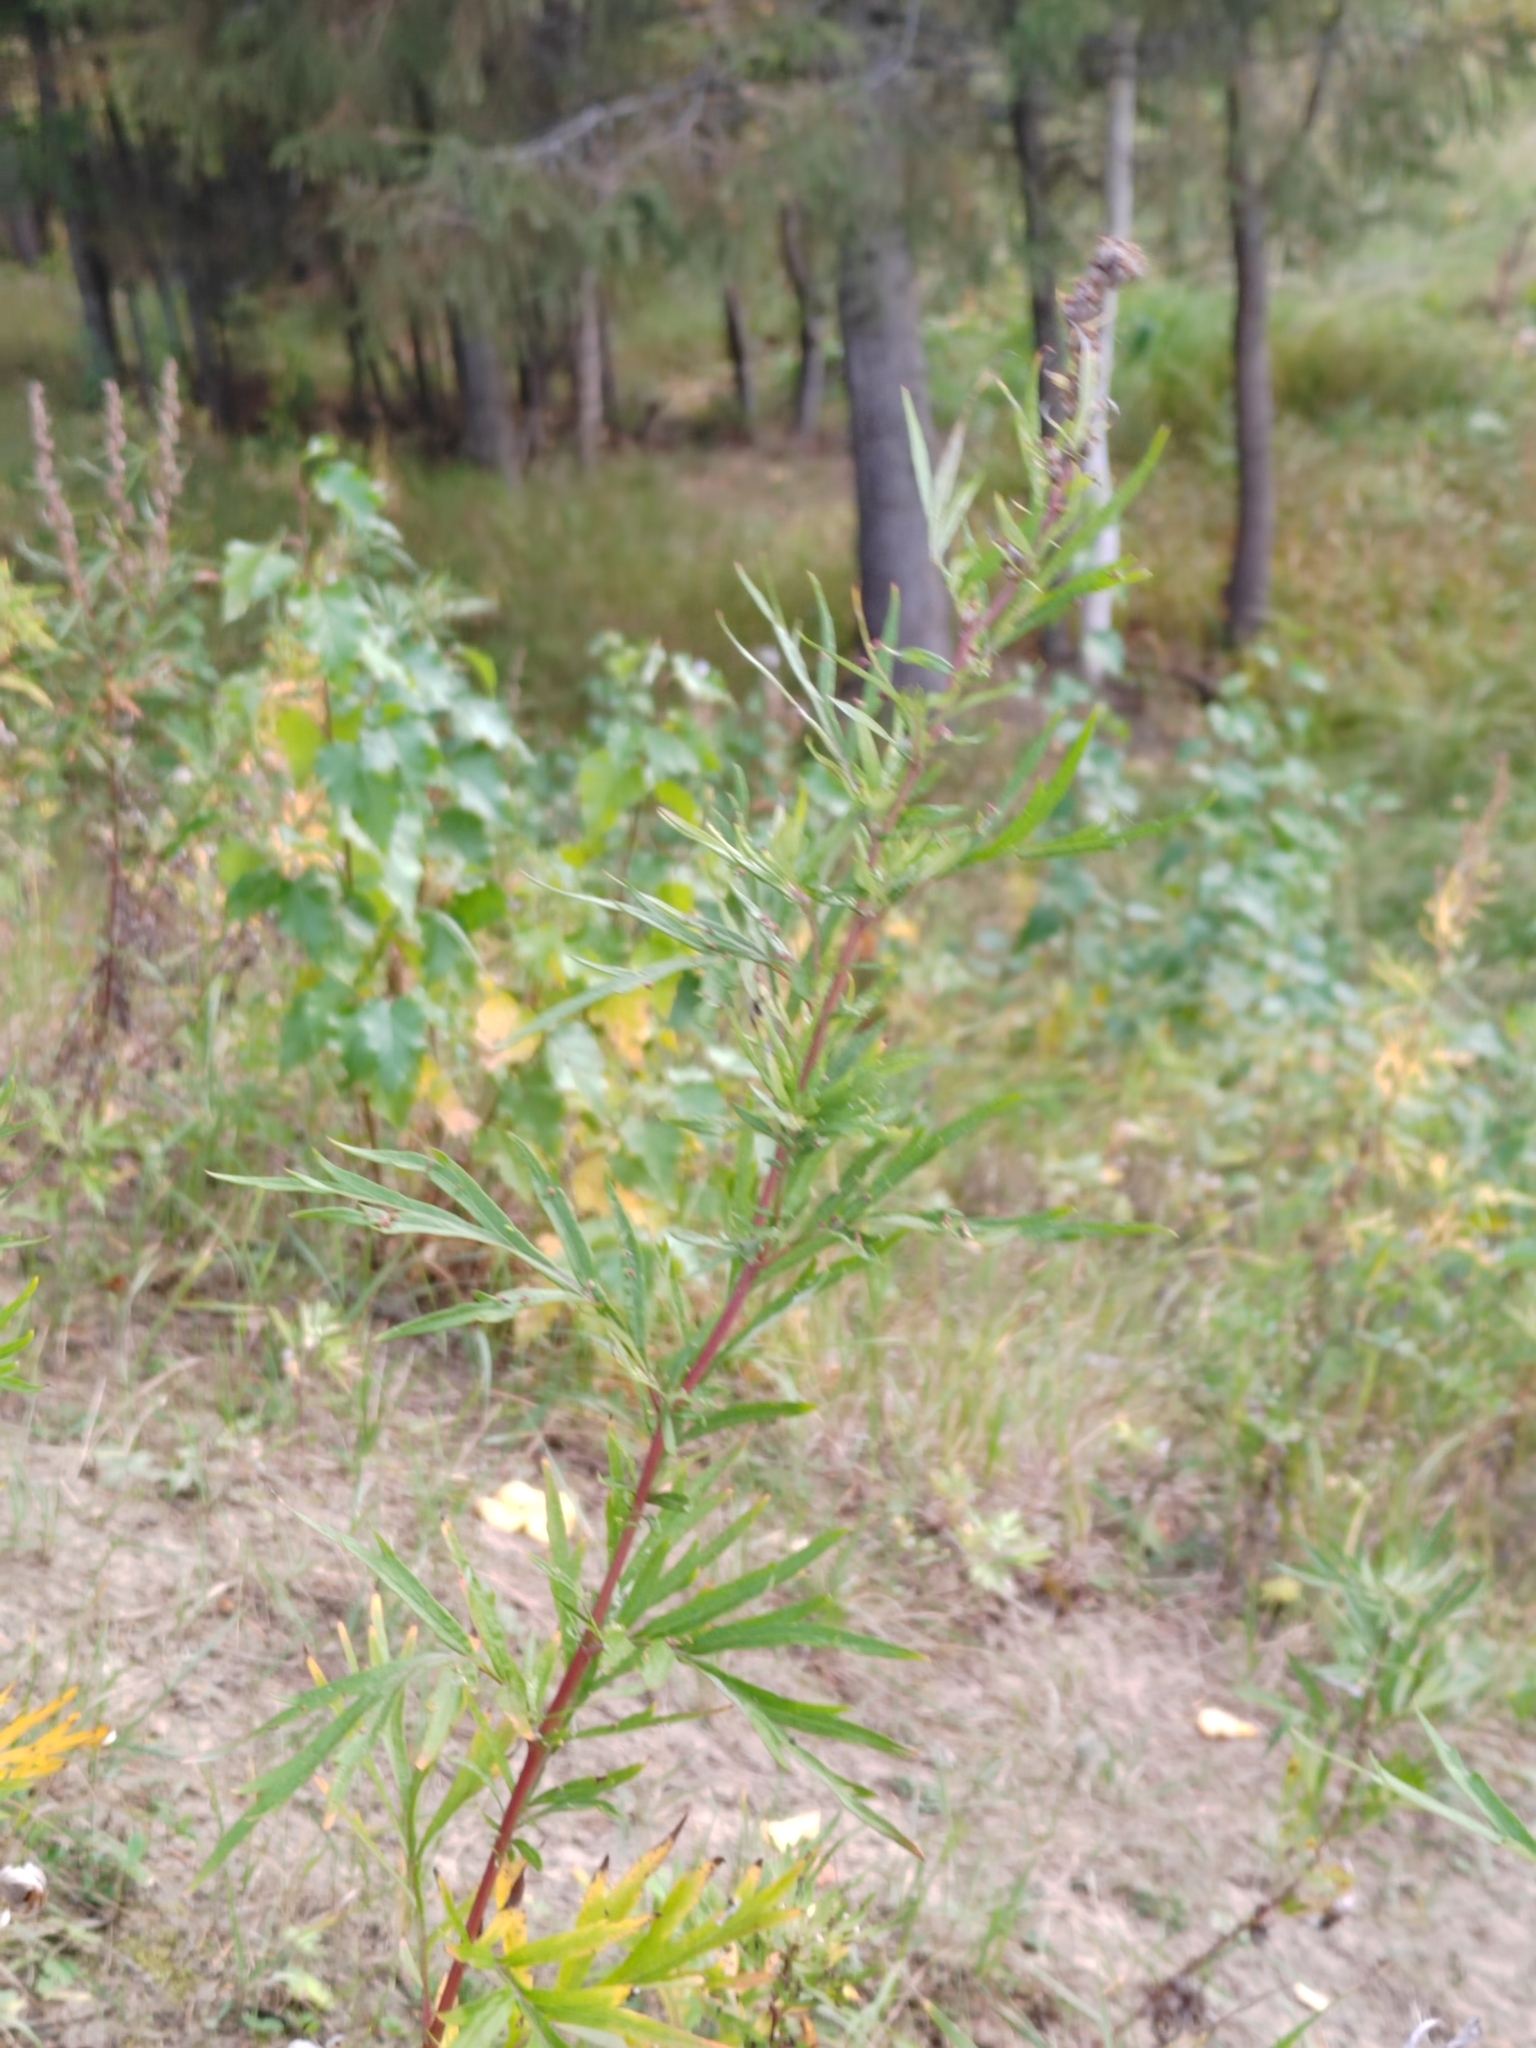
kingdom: Plantae
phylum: Tracheophyta
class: Magnoliopsida
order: Asterales
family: Asteraceae
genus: Artemisia
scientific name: Artemisia vulgaris
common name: Mugwort
